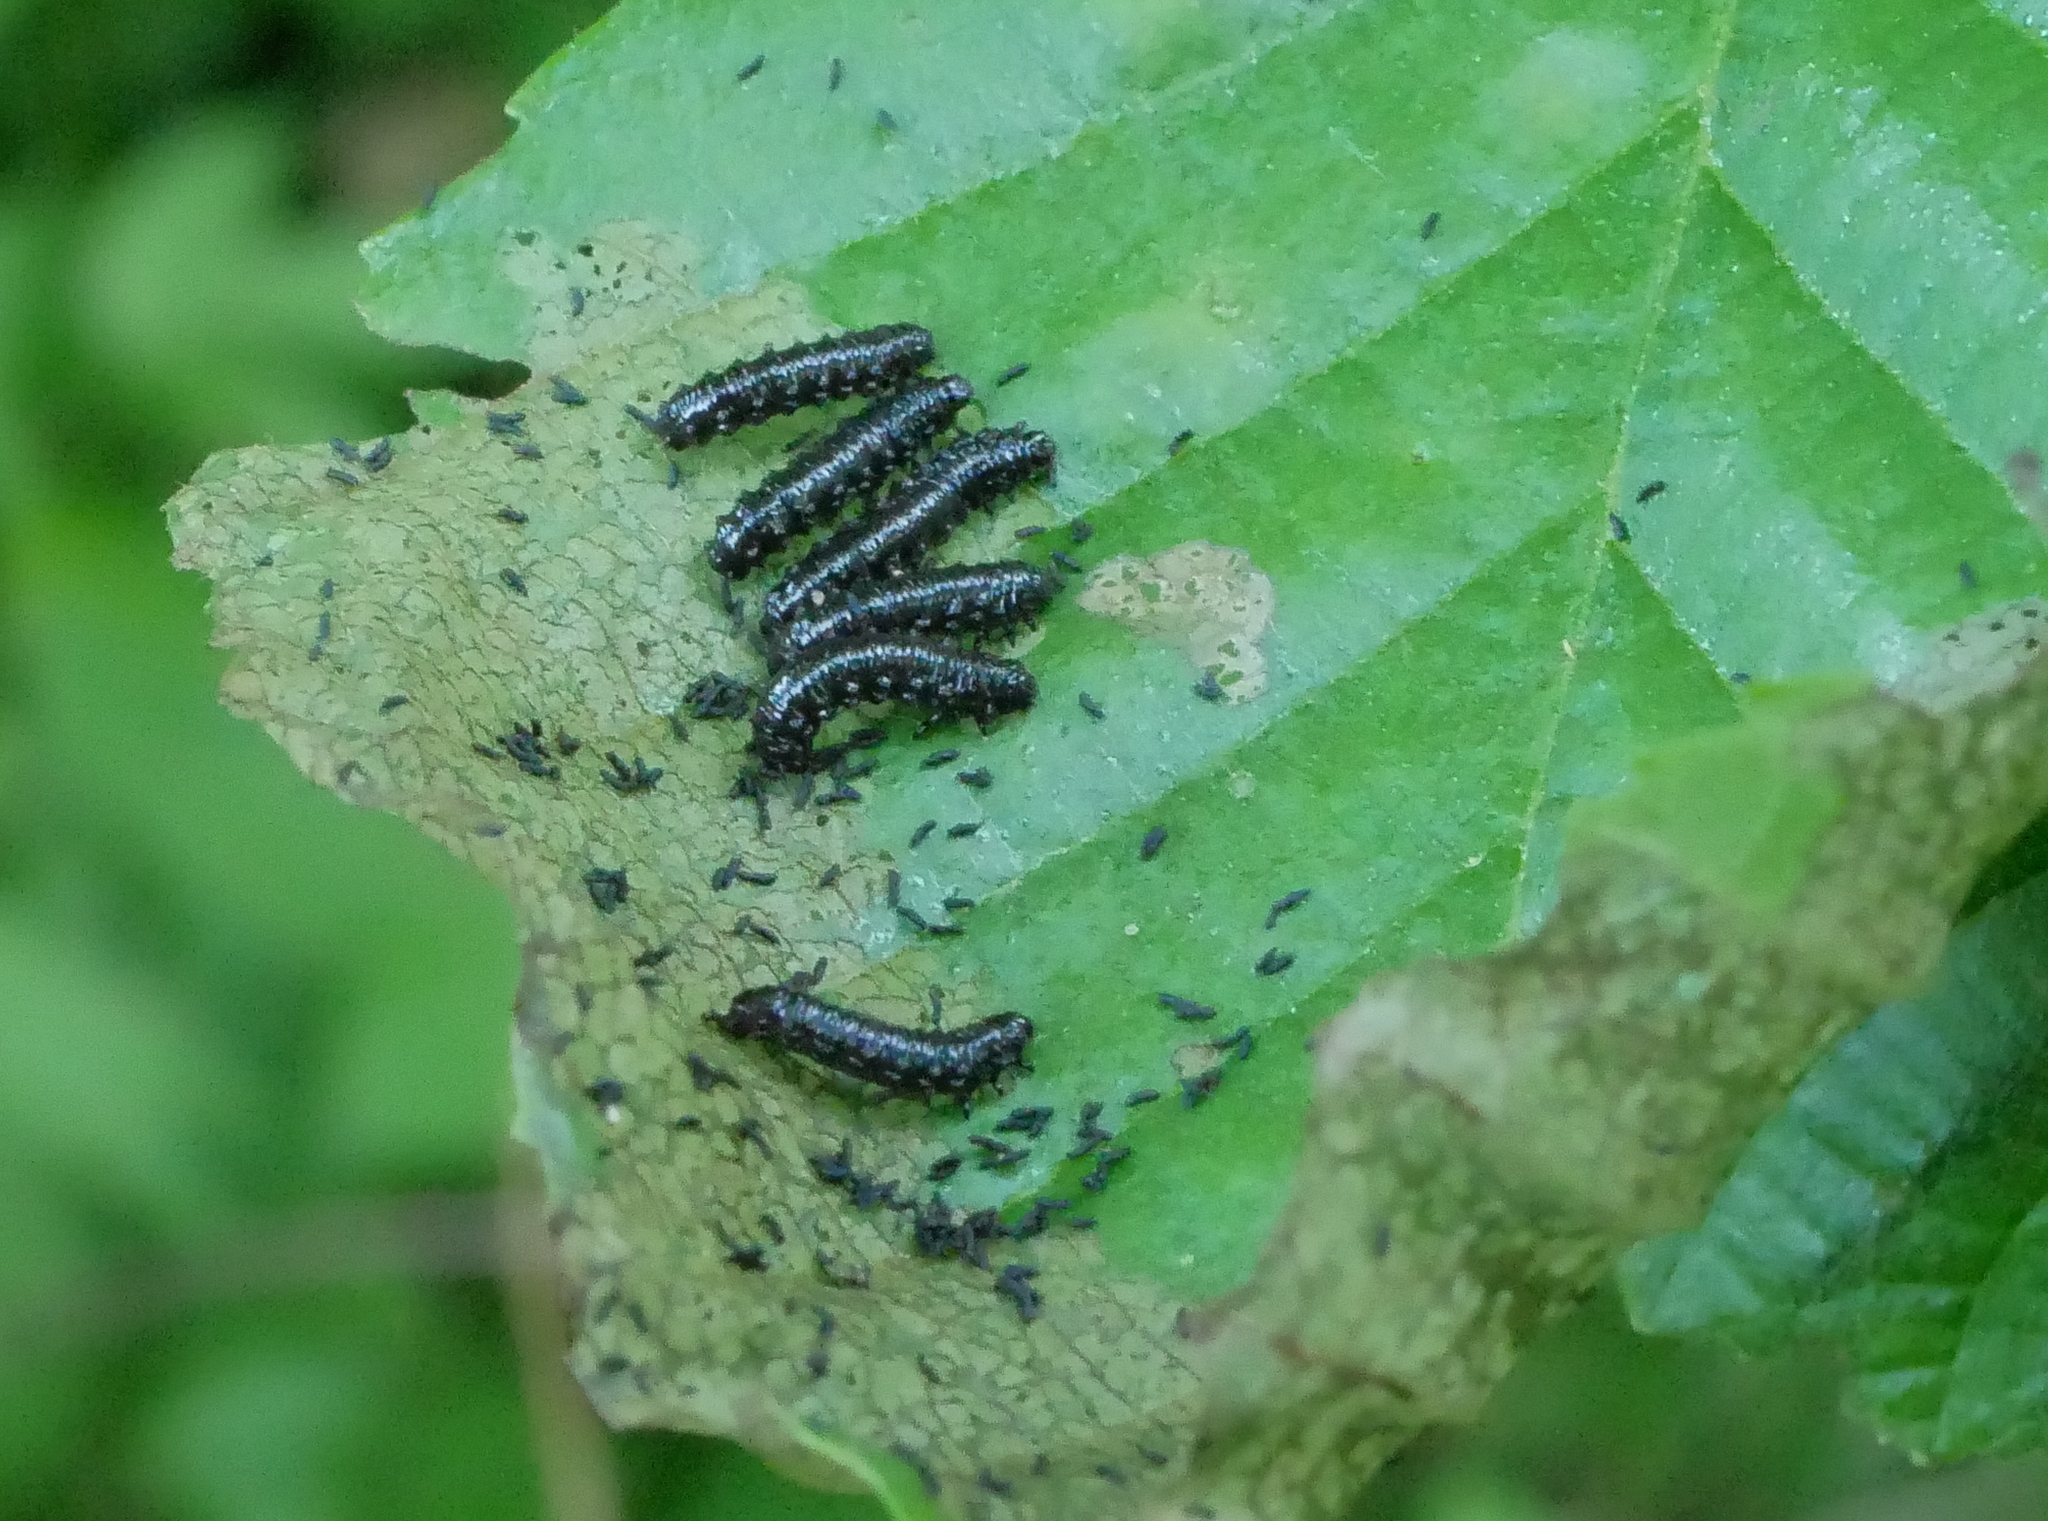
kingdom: Animalia
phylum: Arthropoda
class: Insecta
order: Coleoptera
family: Chrysomelidae
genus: Agelastica
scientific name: Agelastica alni
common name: Alder leaf beetle
